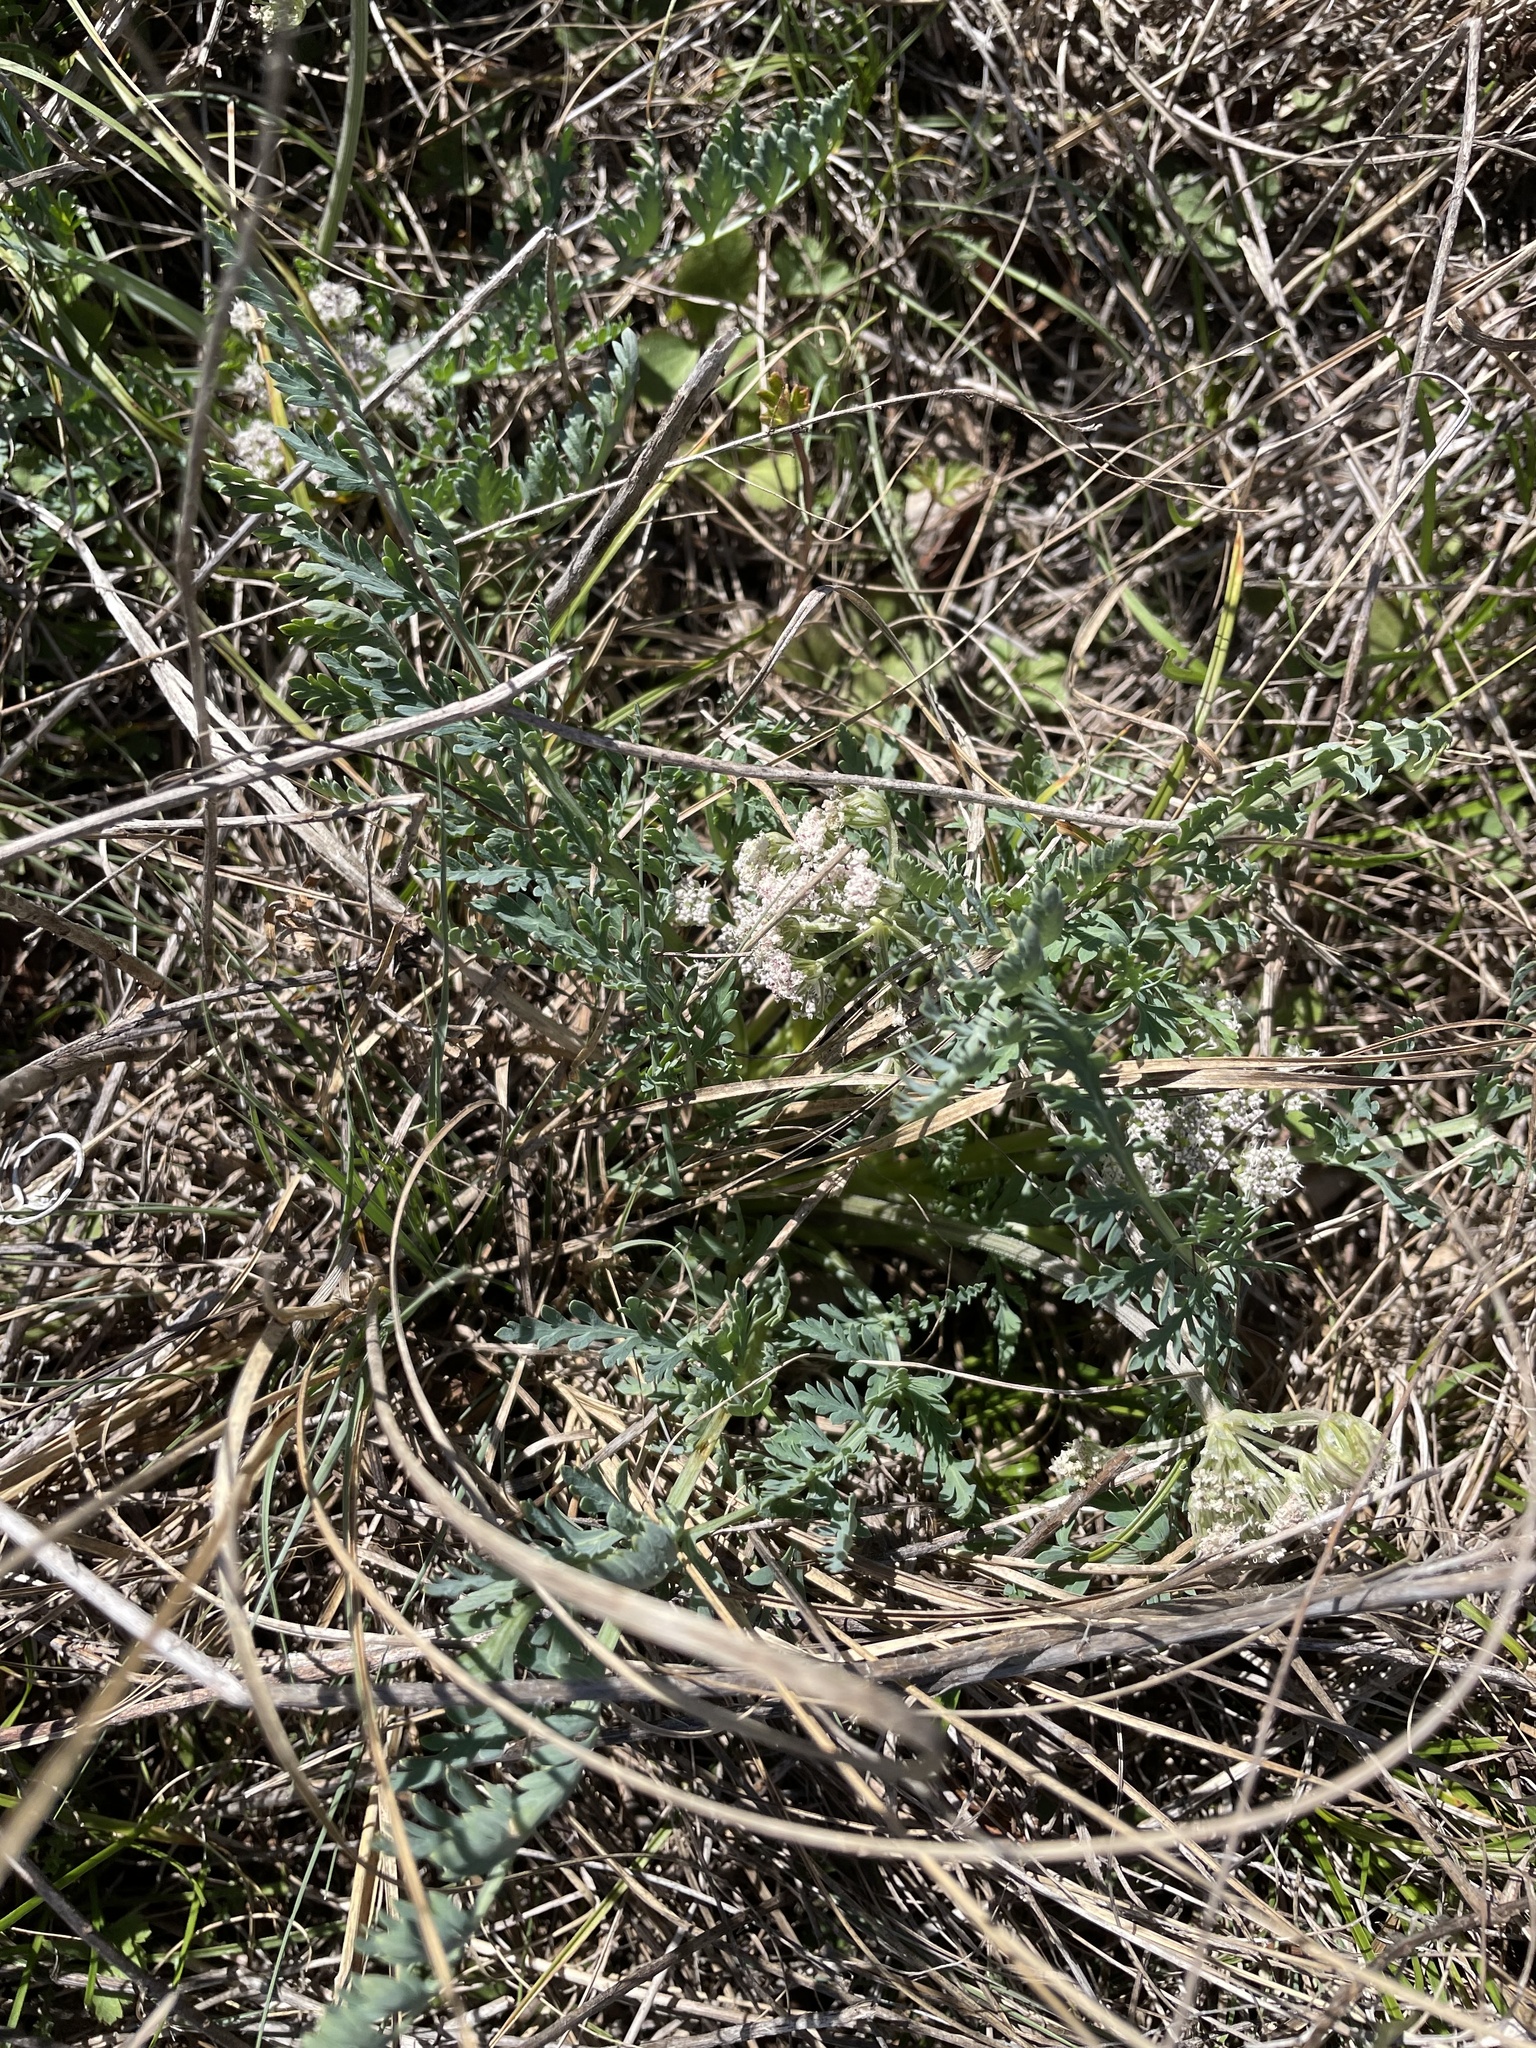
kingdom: Plantae
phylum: Tracheophyta
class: Magnoliopsida
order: Apiales
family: Apiaceae
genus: Vesper
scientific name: Vesper macrorhizus
